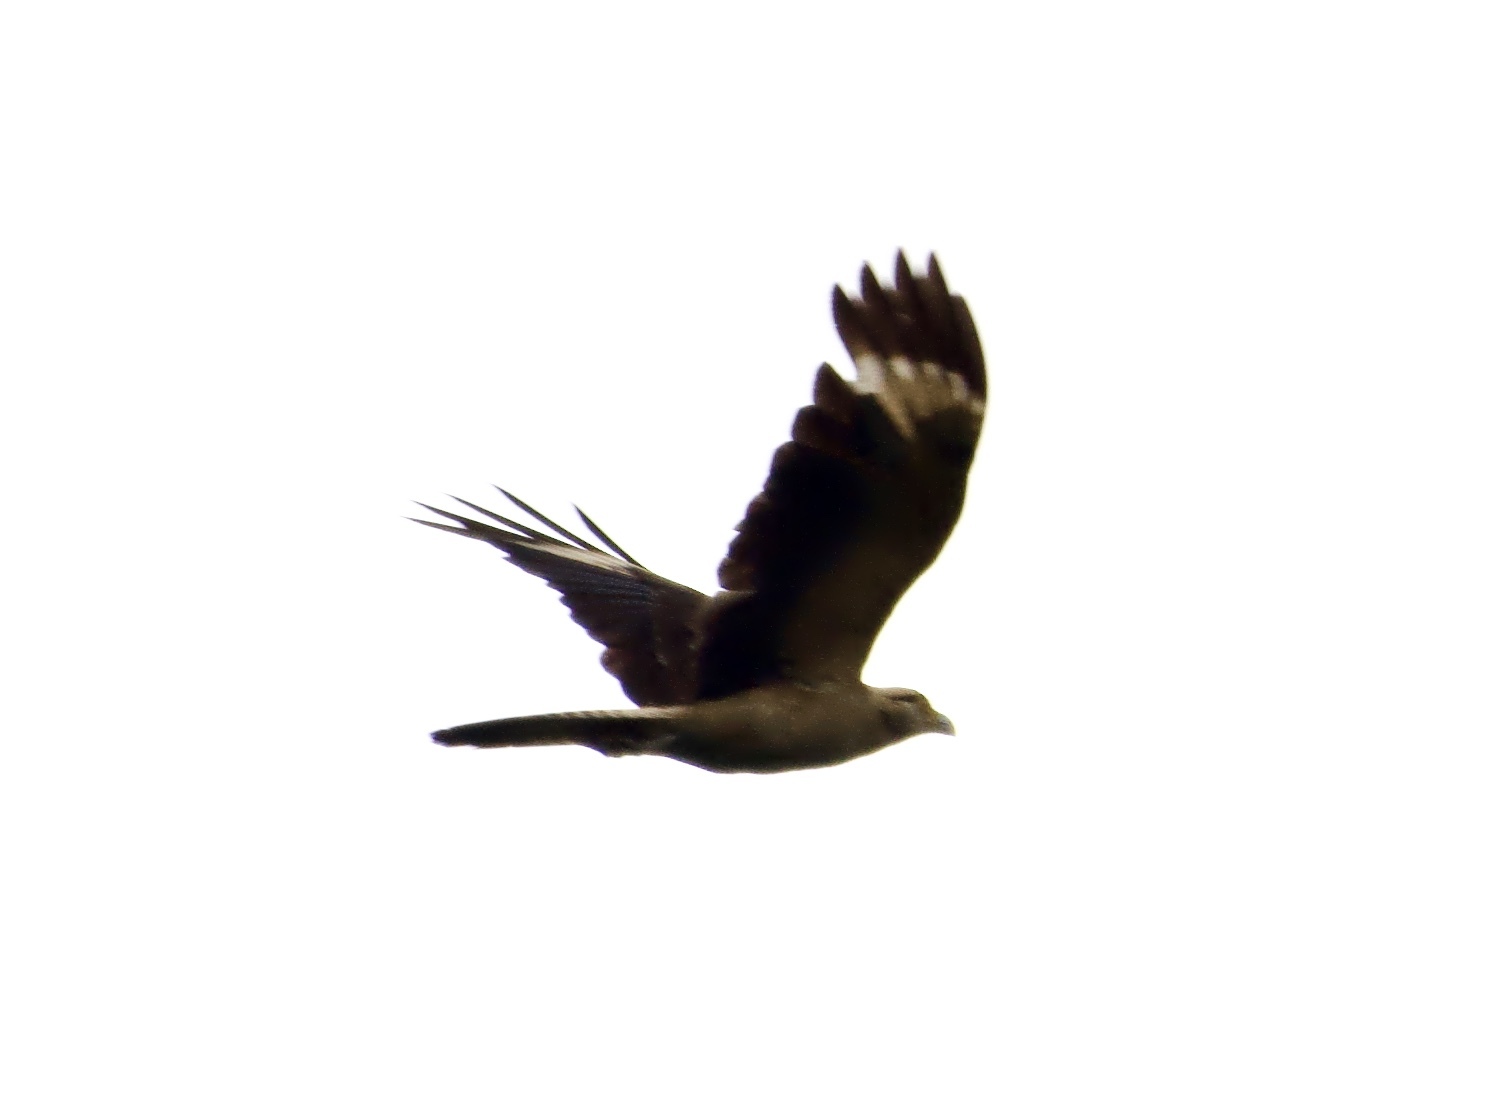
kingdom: Animalia
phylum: Chordata
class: Aves
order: Falconiformes
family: Falconidae
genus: Daptrius
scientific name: Daptrius
